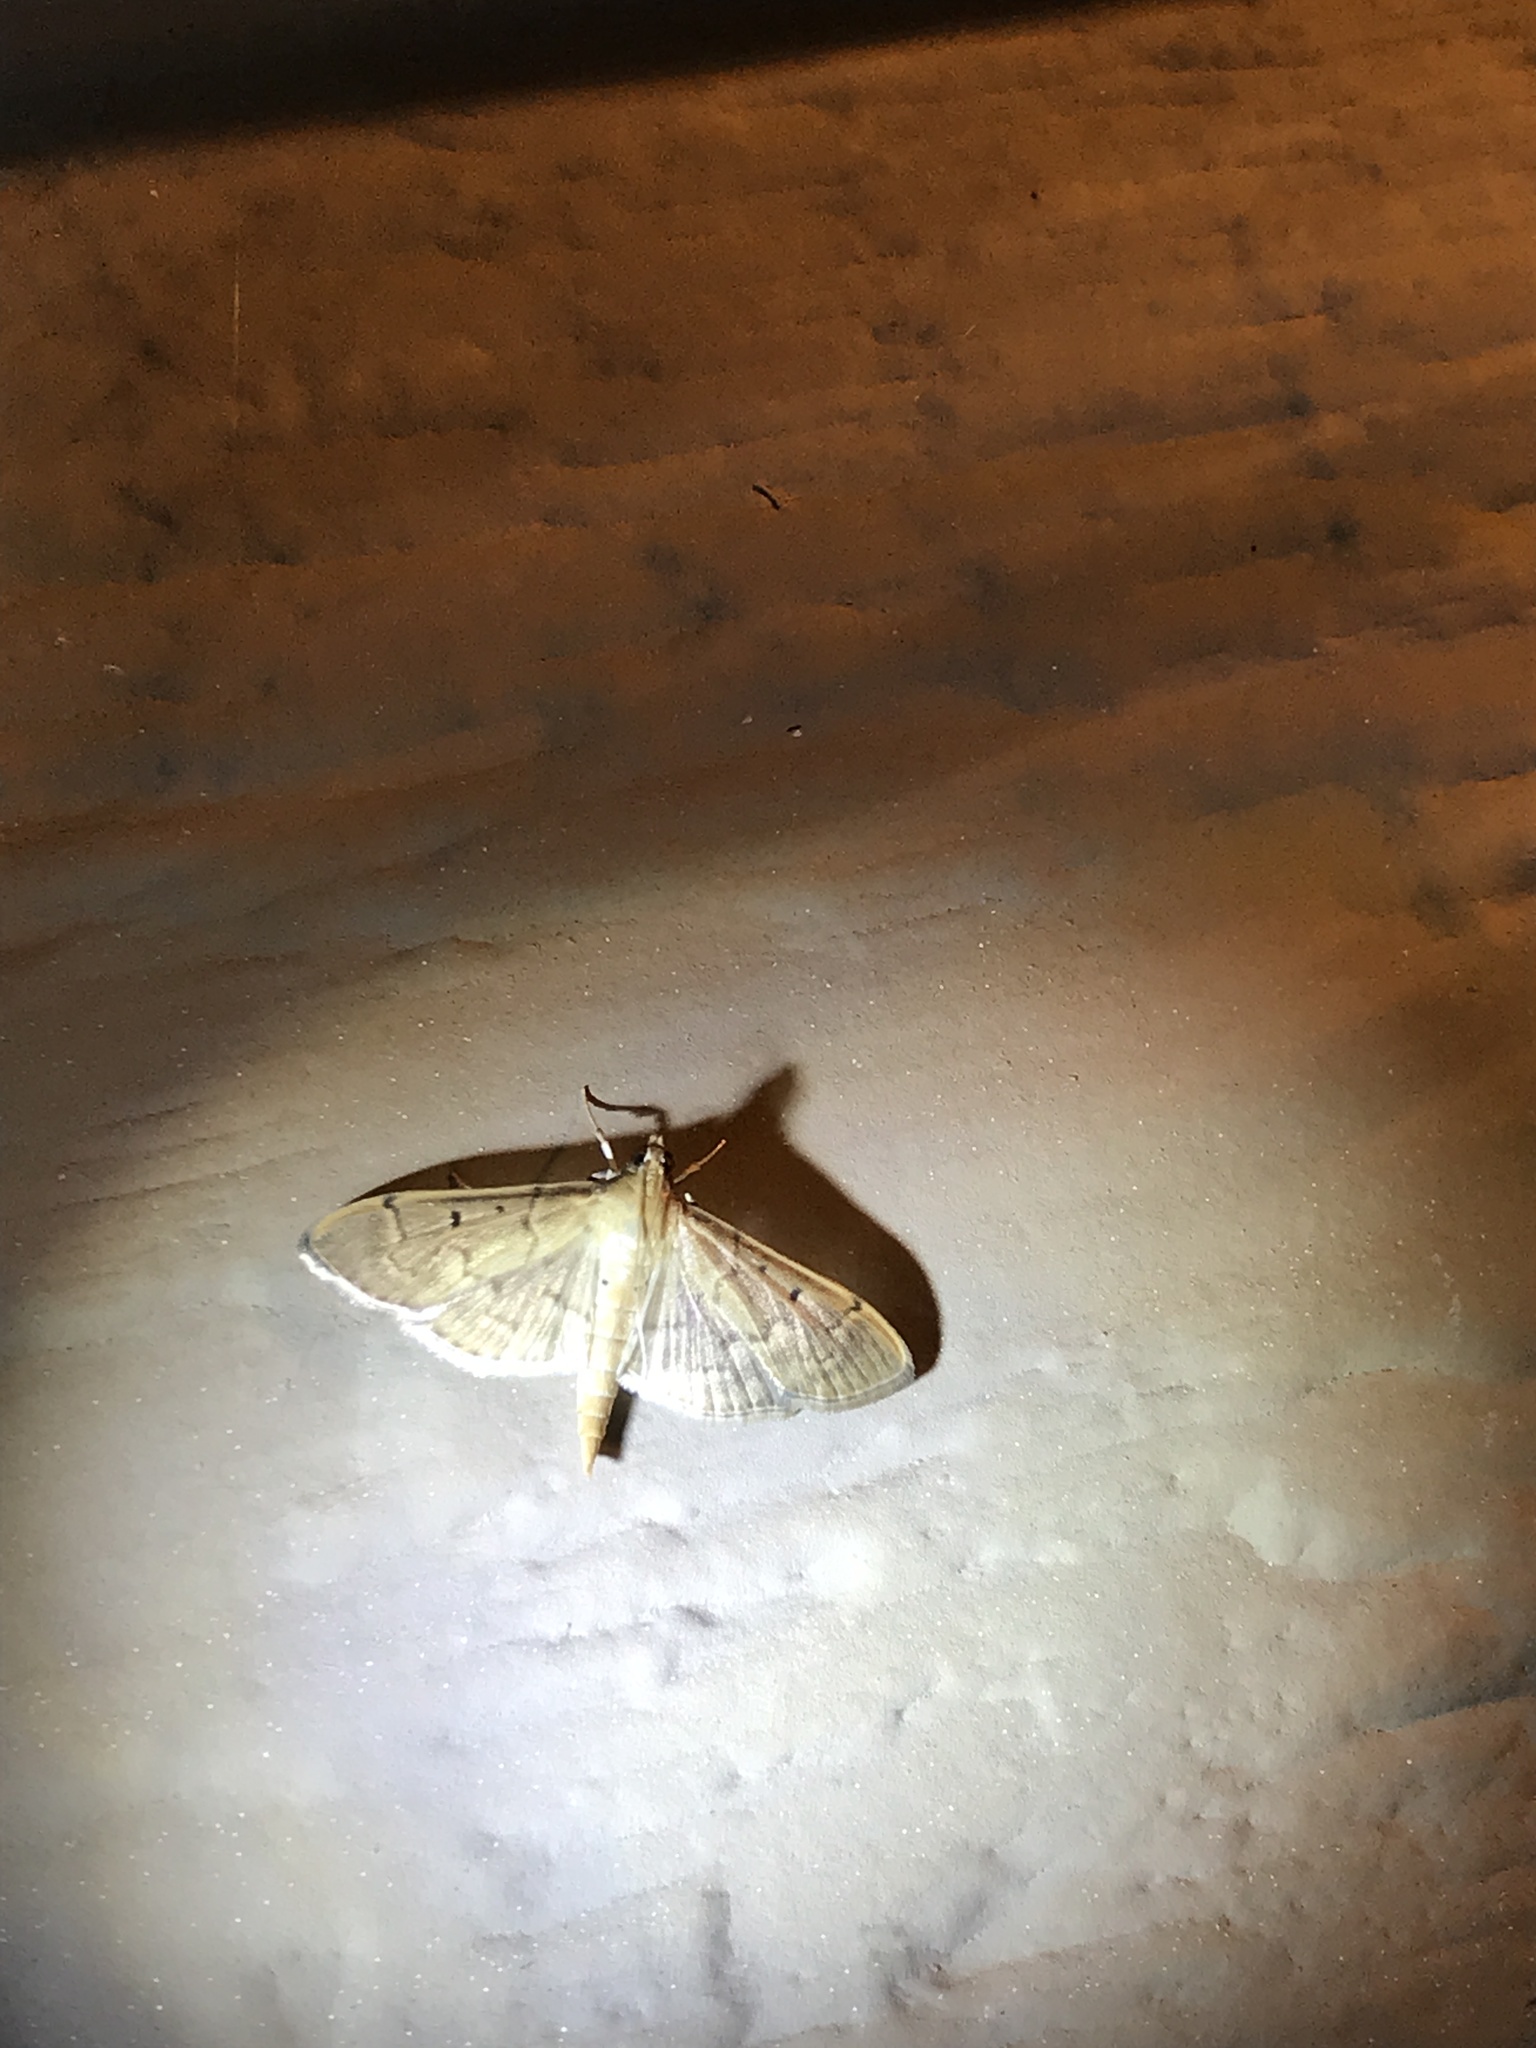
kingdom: Animalia
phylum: Arthropoda
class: Insecta
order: Lepidoptera
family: Crambidae
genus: Herpetogramma
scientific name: Herpetogramma bipunctalis
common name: Southern beet webworm
